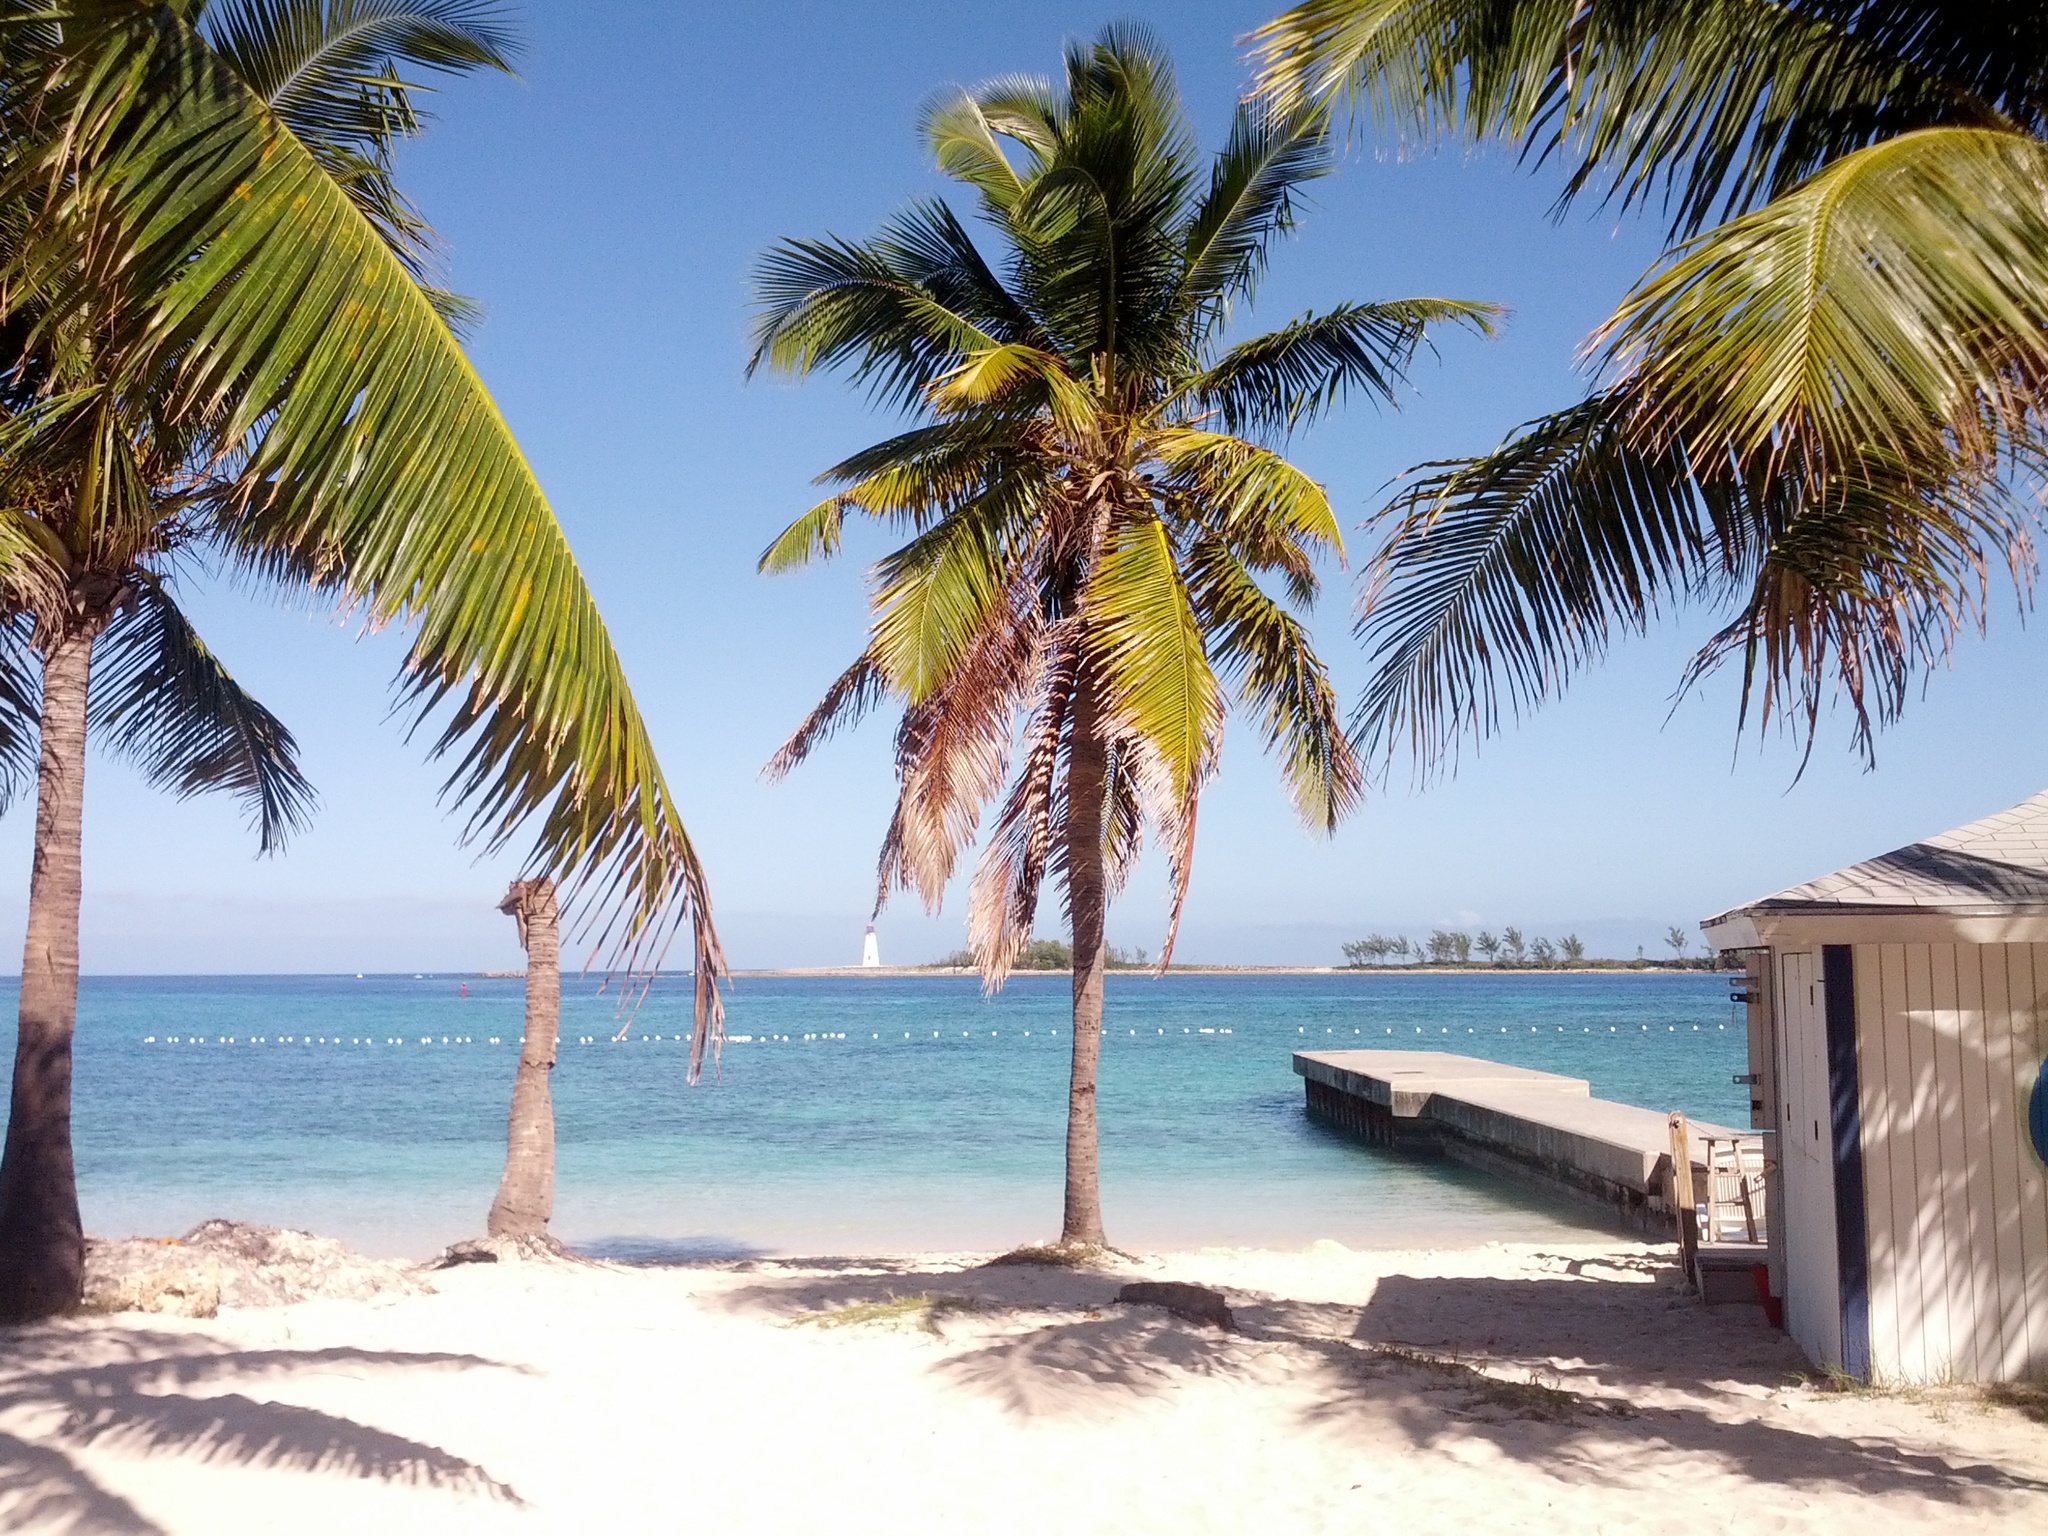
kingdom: Plantae
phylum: Tracheophyta
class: Liliopsida
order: Arecales
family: Arecaceae
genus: Cocos
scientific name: Cocos nucifera
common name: Coconut palm
